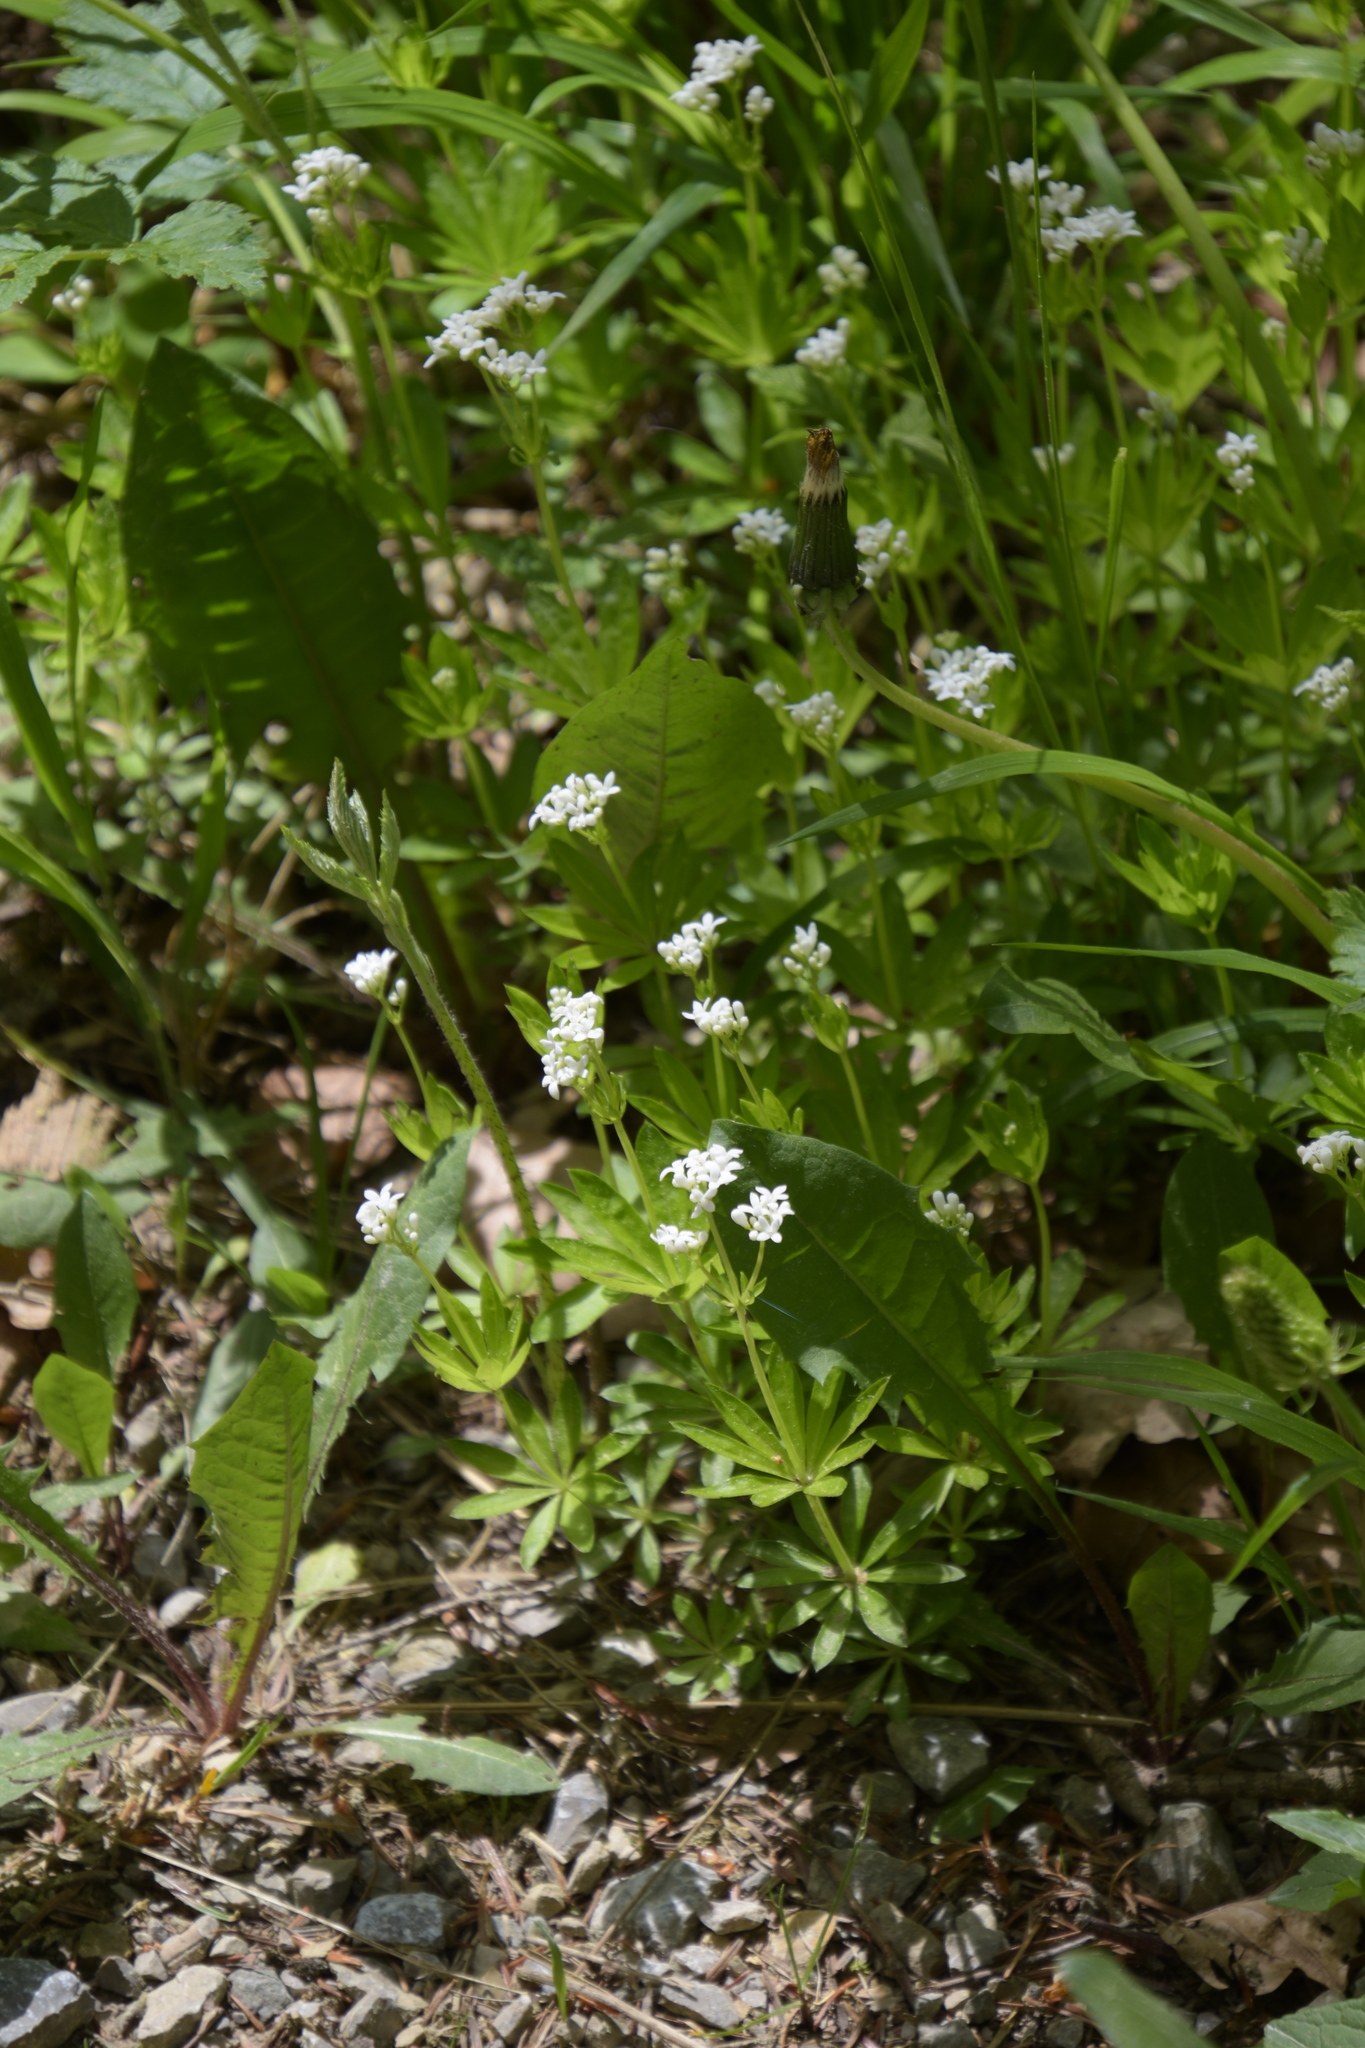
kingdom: Plantae
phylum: Tracheophyta
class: Magnoliopsida
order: Gentianales
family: Rubiaceae
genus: Galium
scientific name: Galium odoratum
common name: Sweet woodruff
